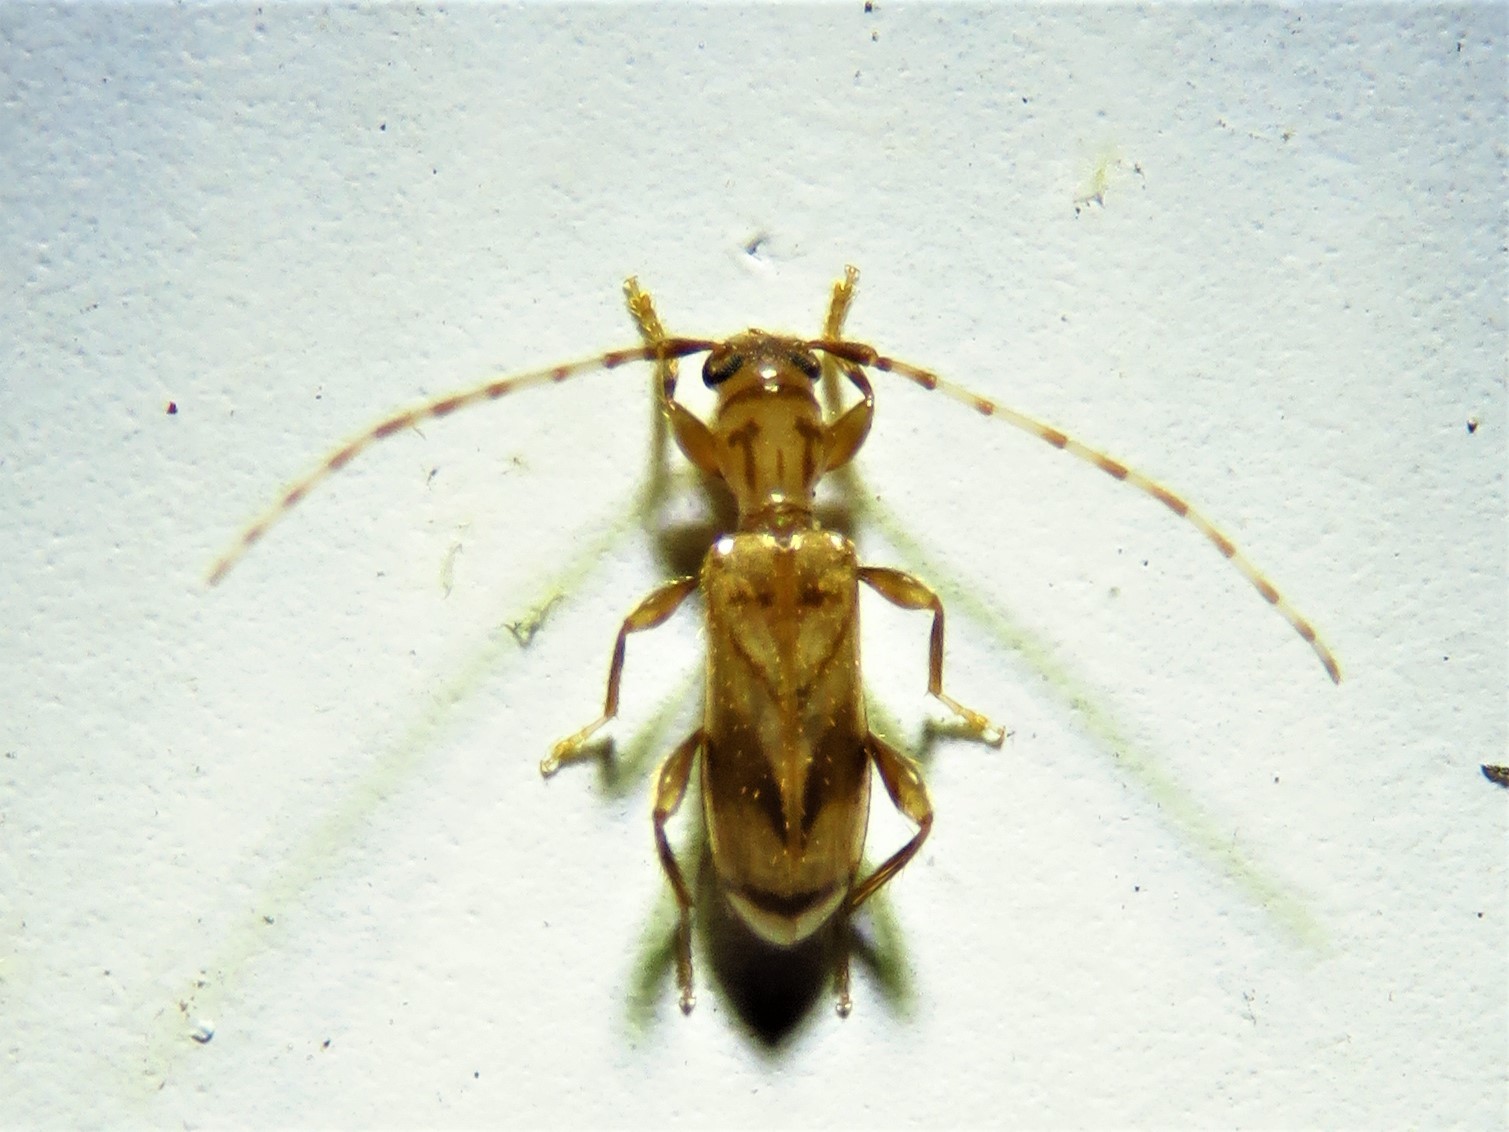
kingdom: Animalia
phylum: Arthropoda
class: Insecta
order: Coleoptera
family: Cerambycidae
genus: Obrium
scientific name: Obrium maculatum
